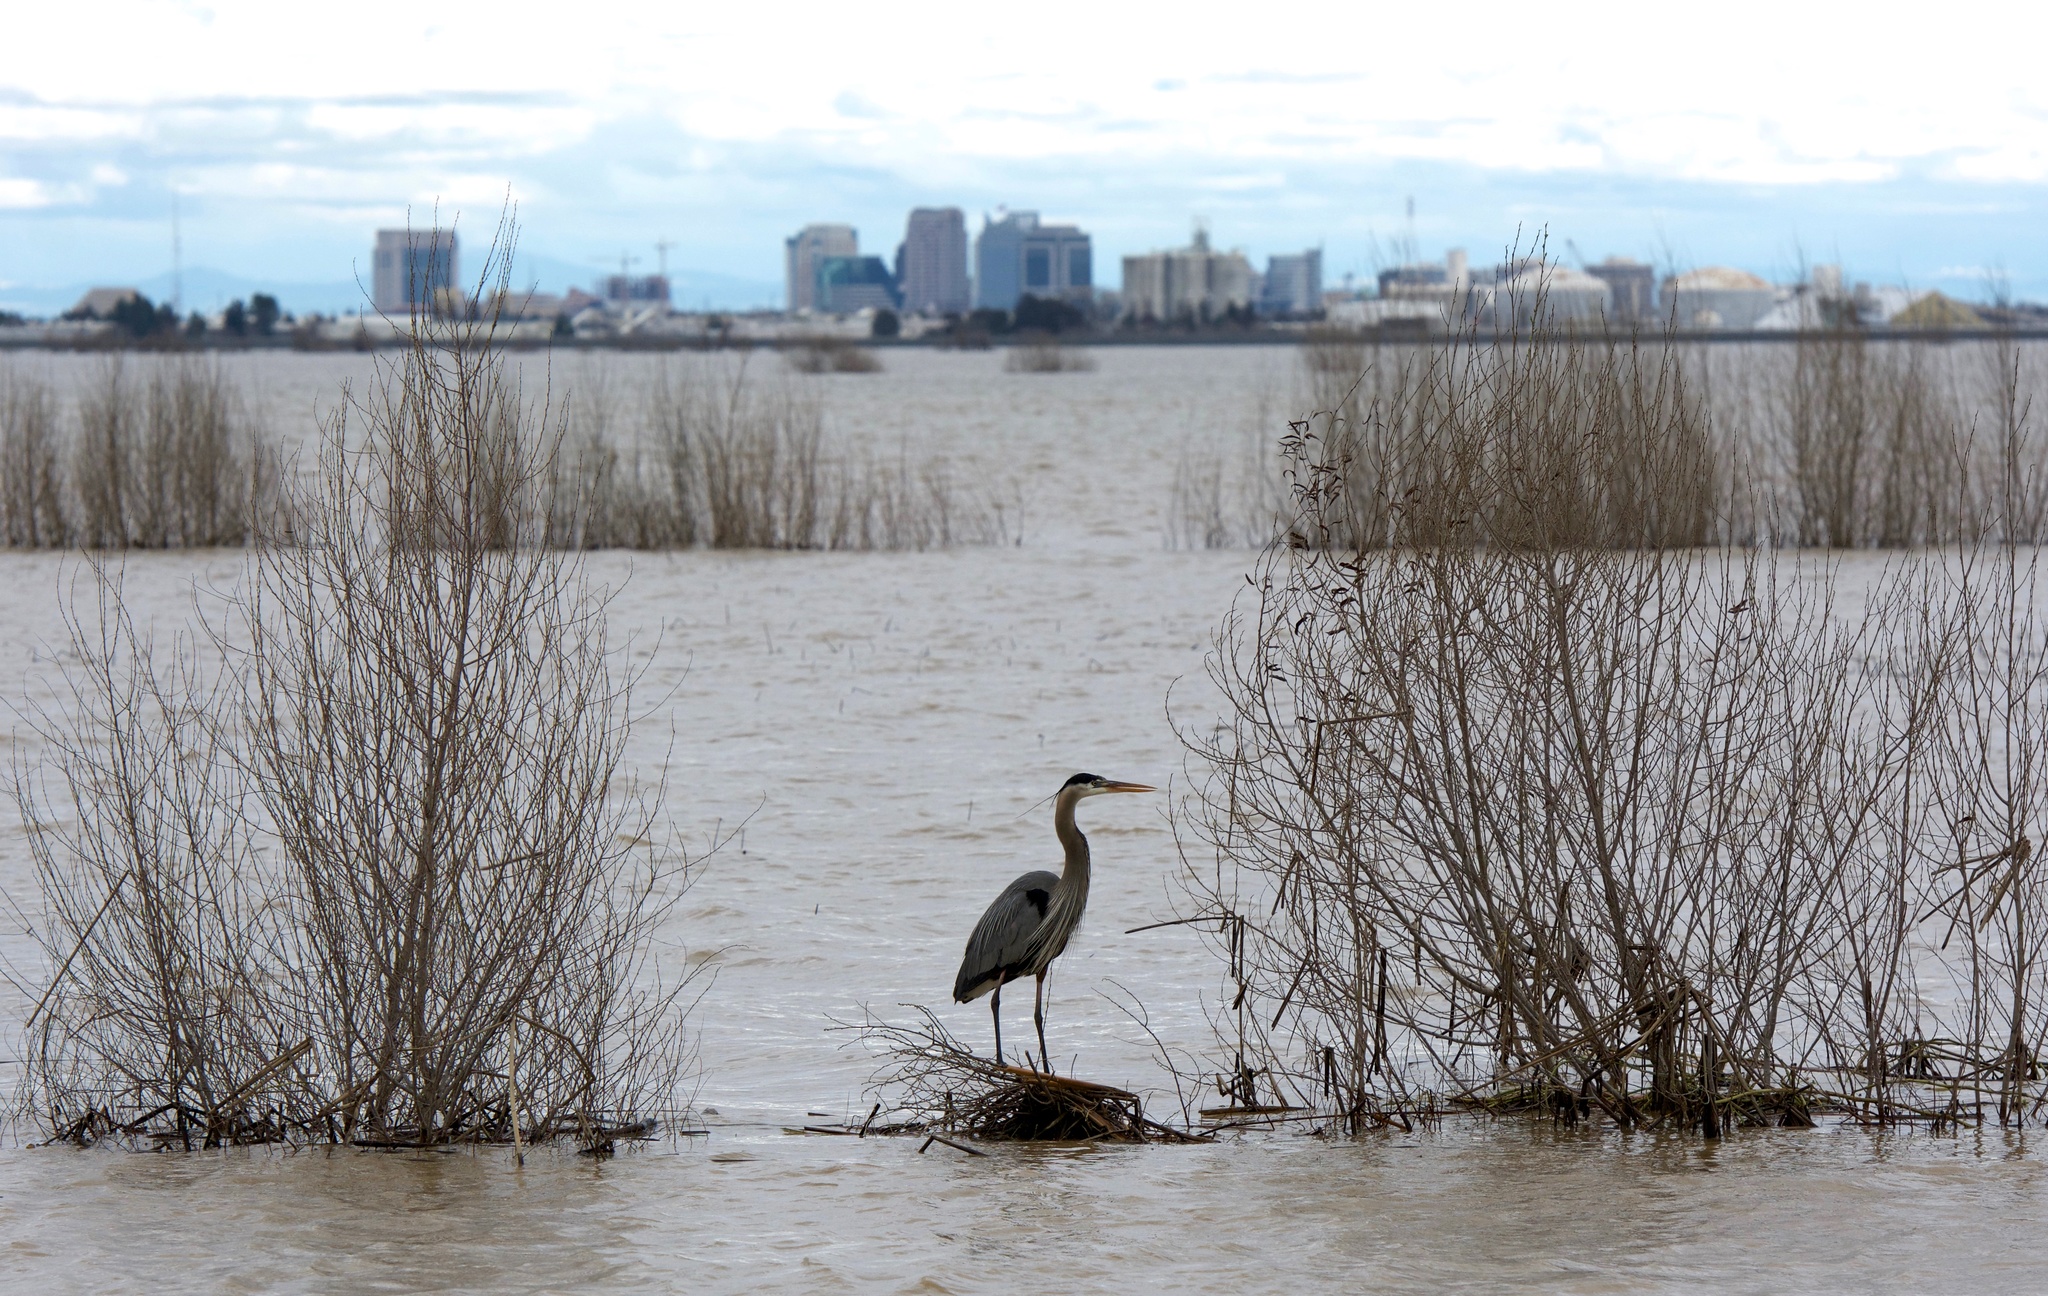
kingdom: Animalia
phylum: Chordata
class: Aves
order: Pelecaniformes
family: Ardeidae
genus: Ardea
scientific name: Ardea herodias
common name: Great blue heron
